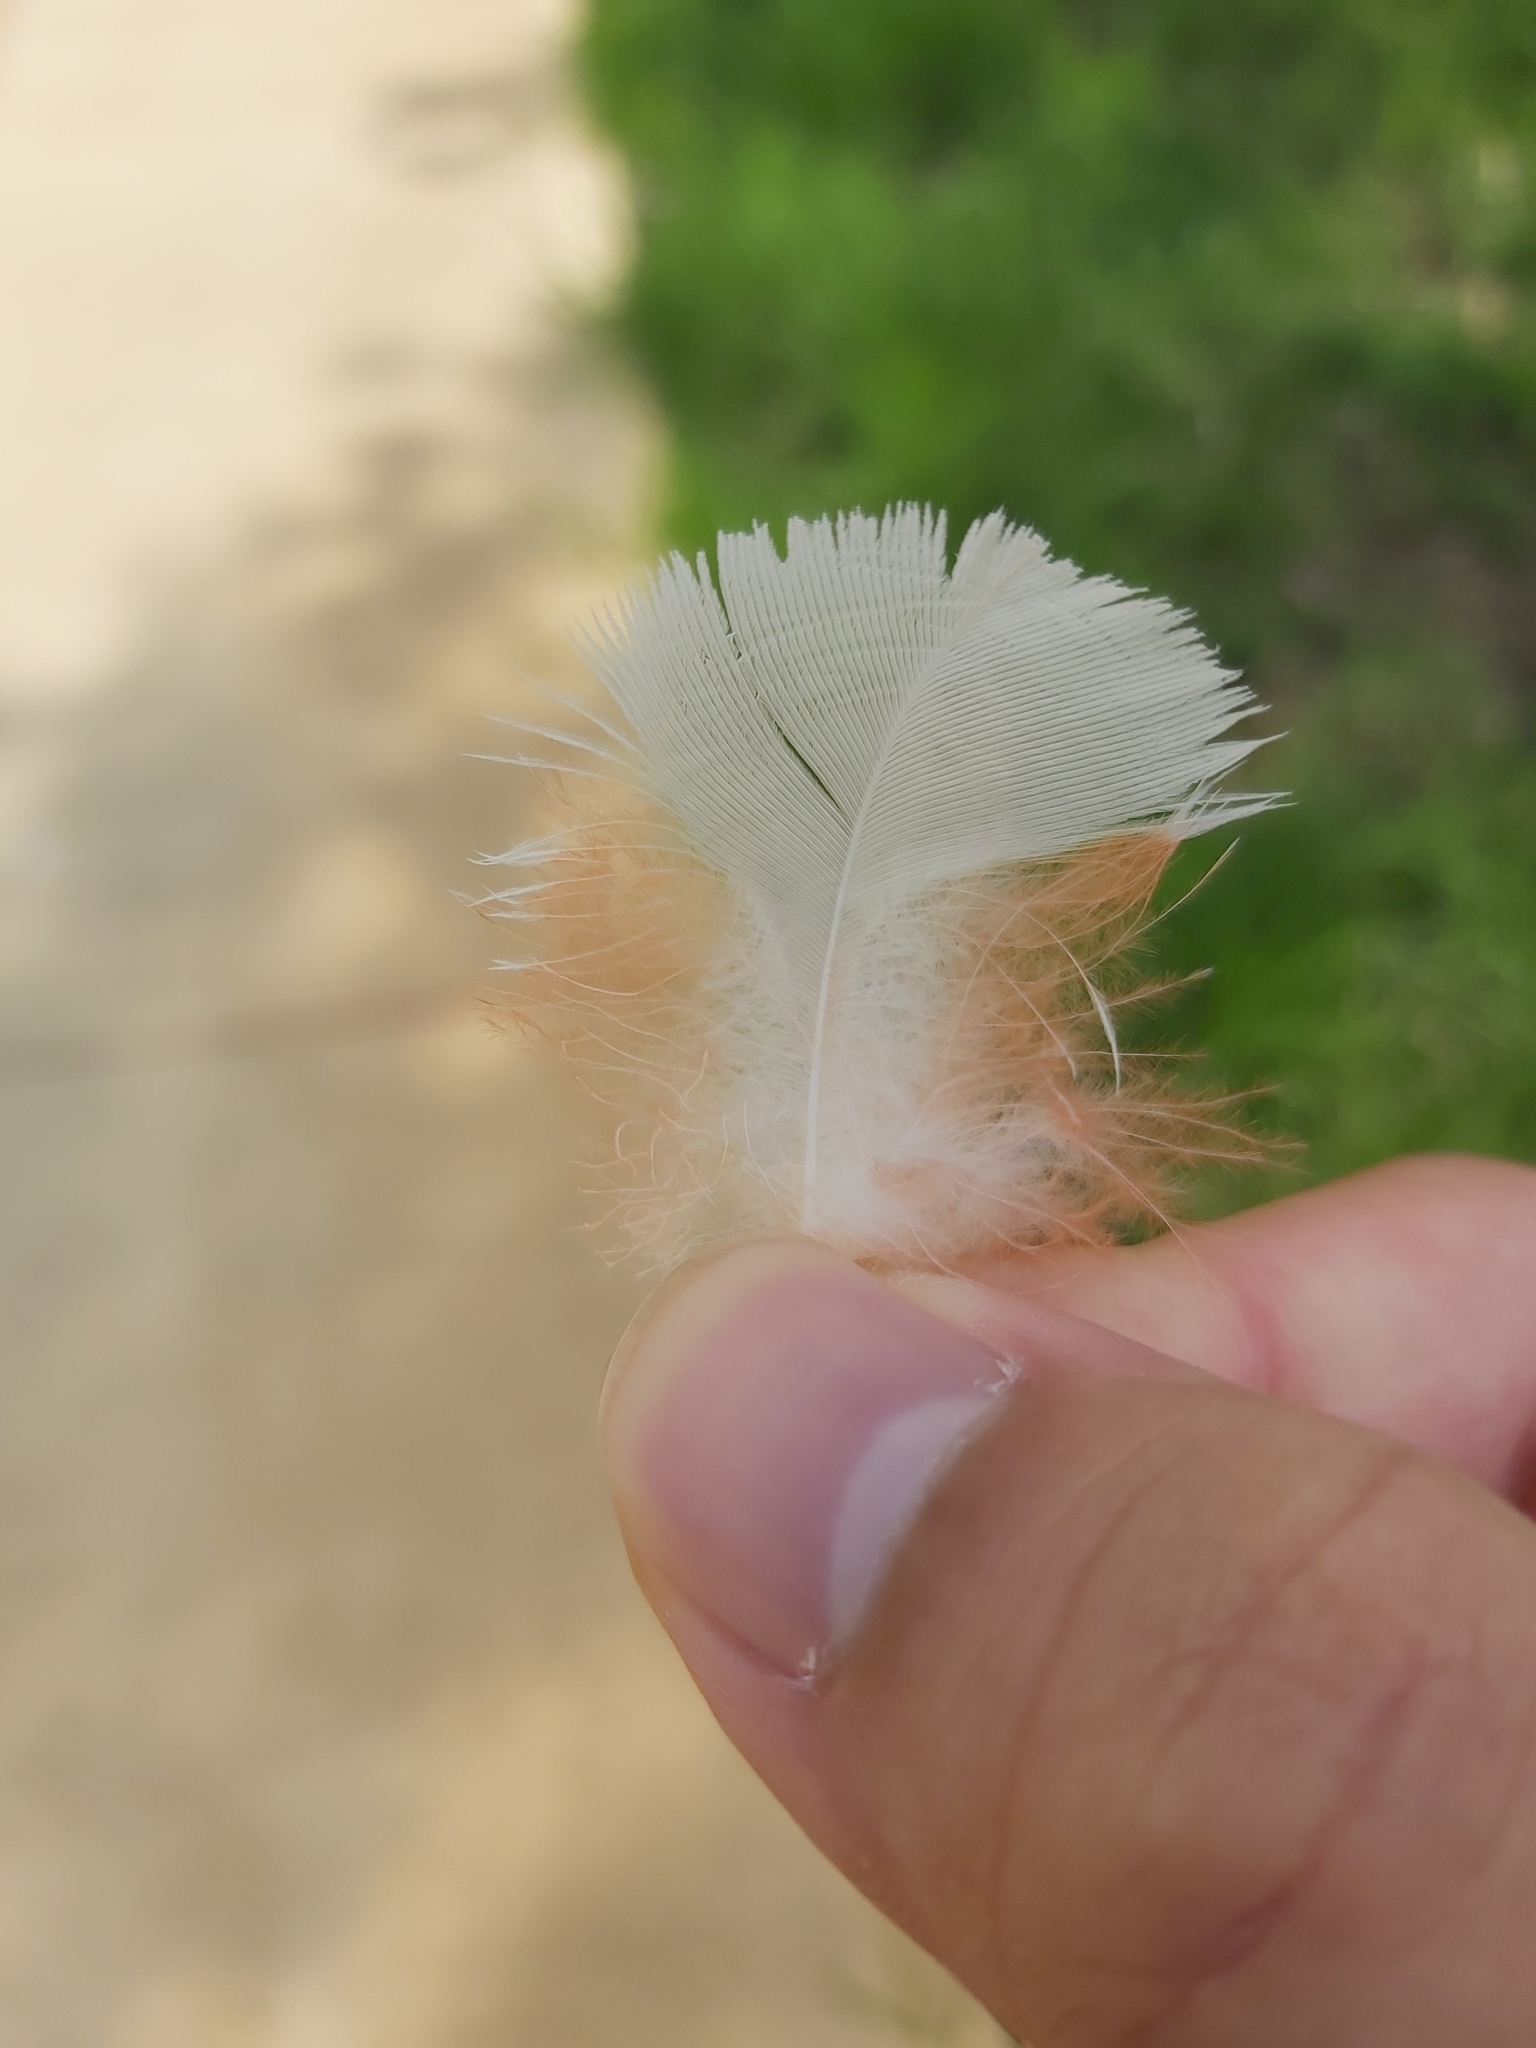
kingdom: Animalia
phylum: Chordata
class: Aves
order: Psittaciformes
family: Psittacidae
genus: Cacatua
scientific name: Cacatua tenuirostris
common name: Long-billed corella
